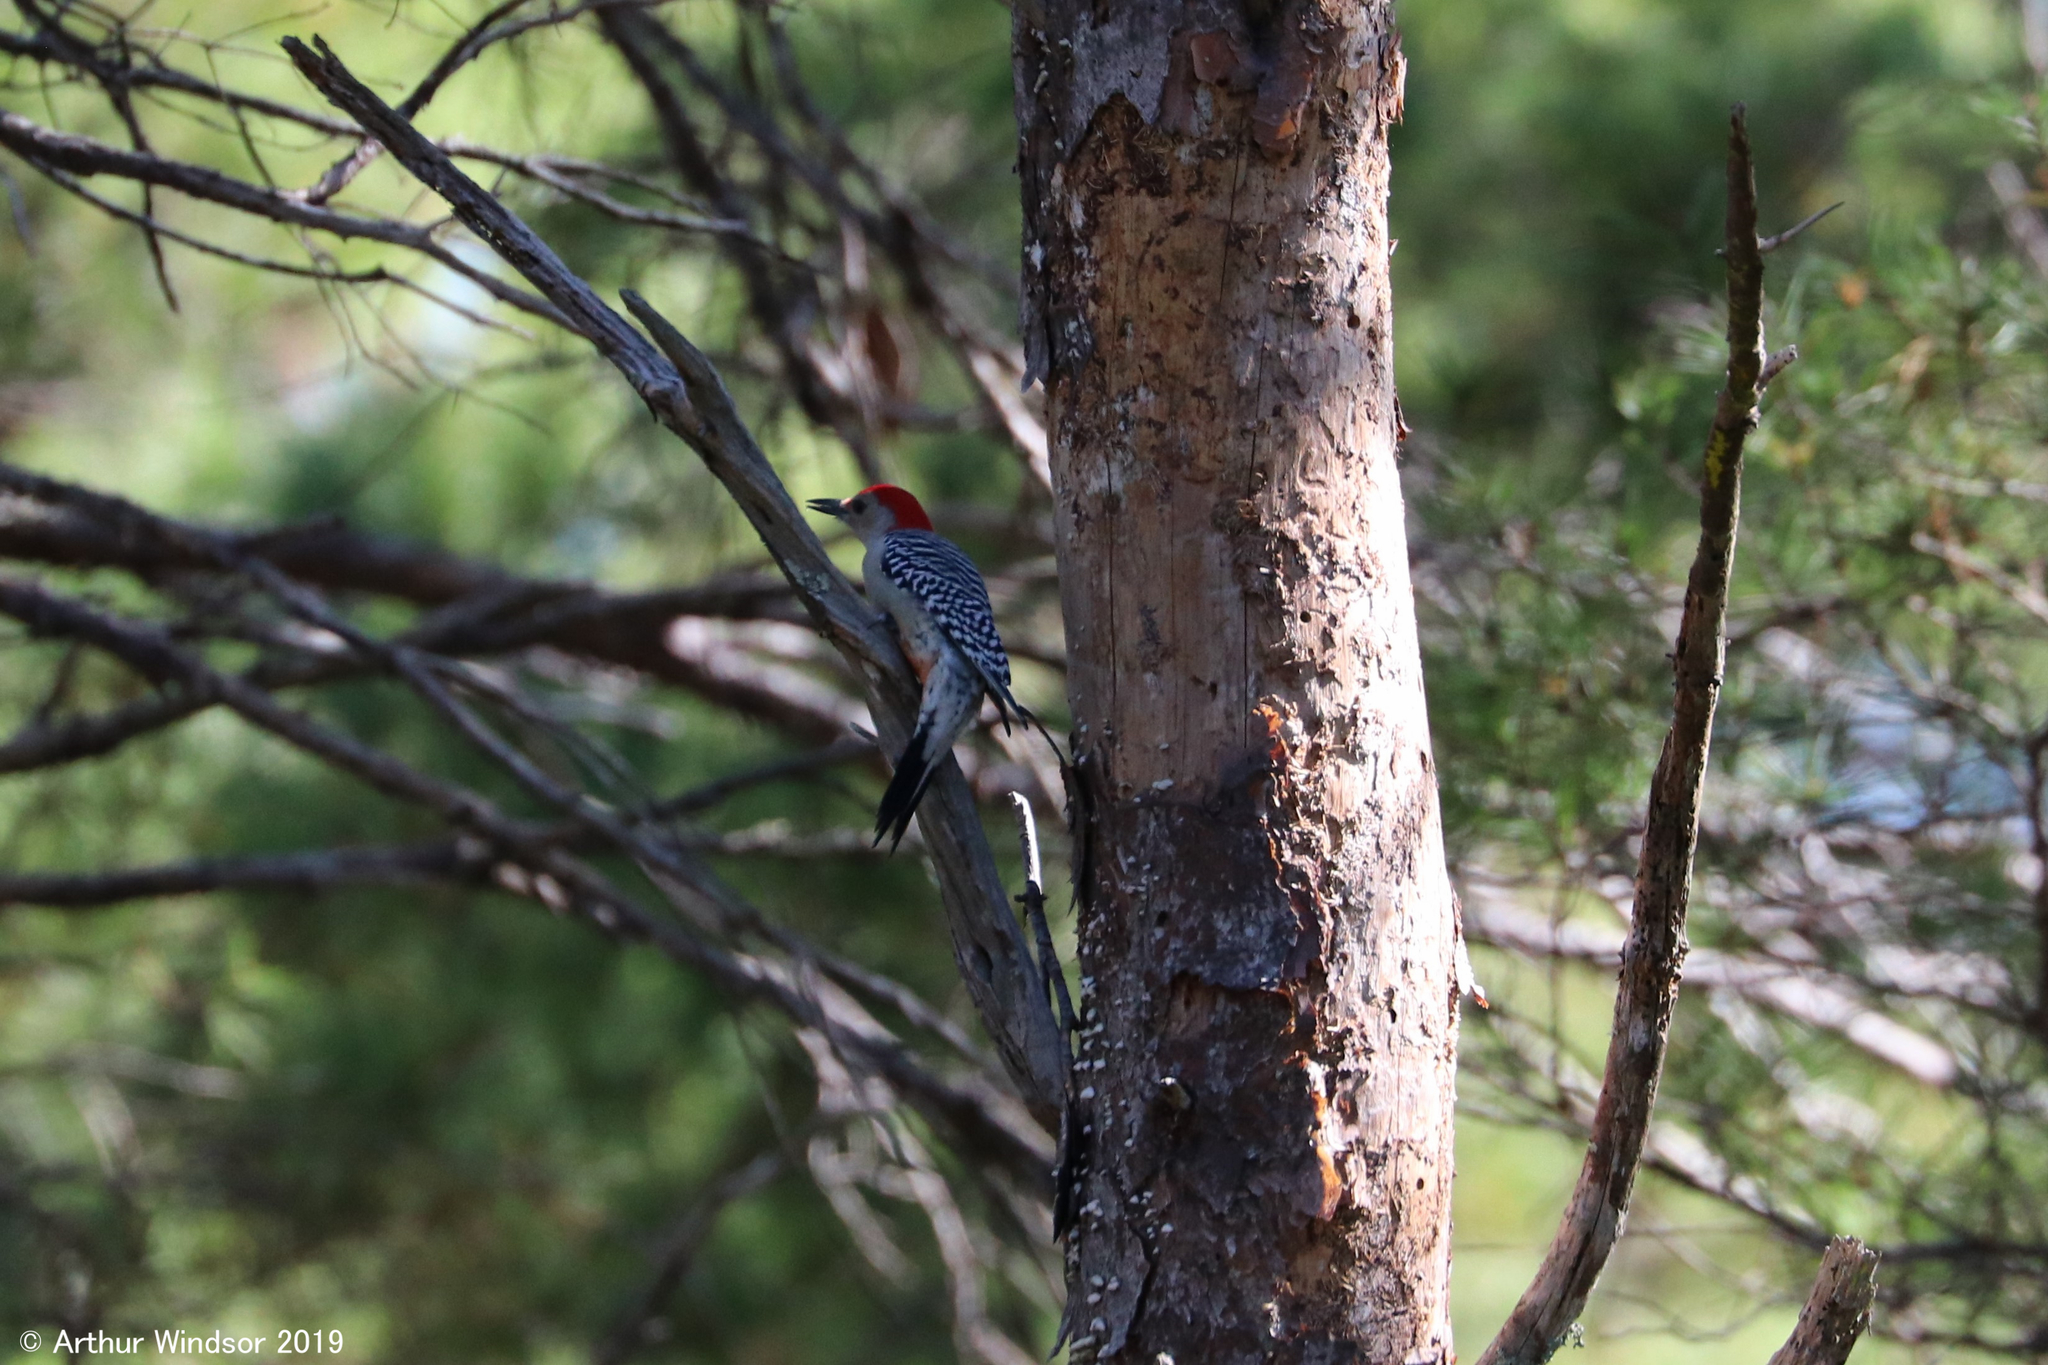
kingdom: Animalia
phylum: Chordata
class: Aves
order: Piciformes
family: Picidae
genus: Melanerpes
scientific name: Melanerpes carolinus
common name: Red-bellied woodpecker
